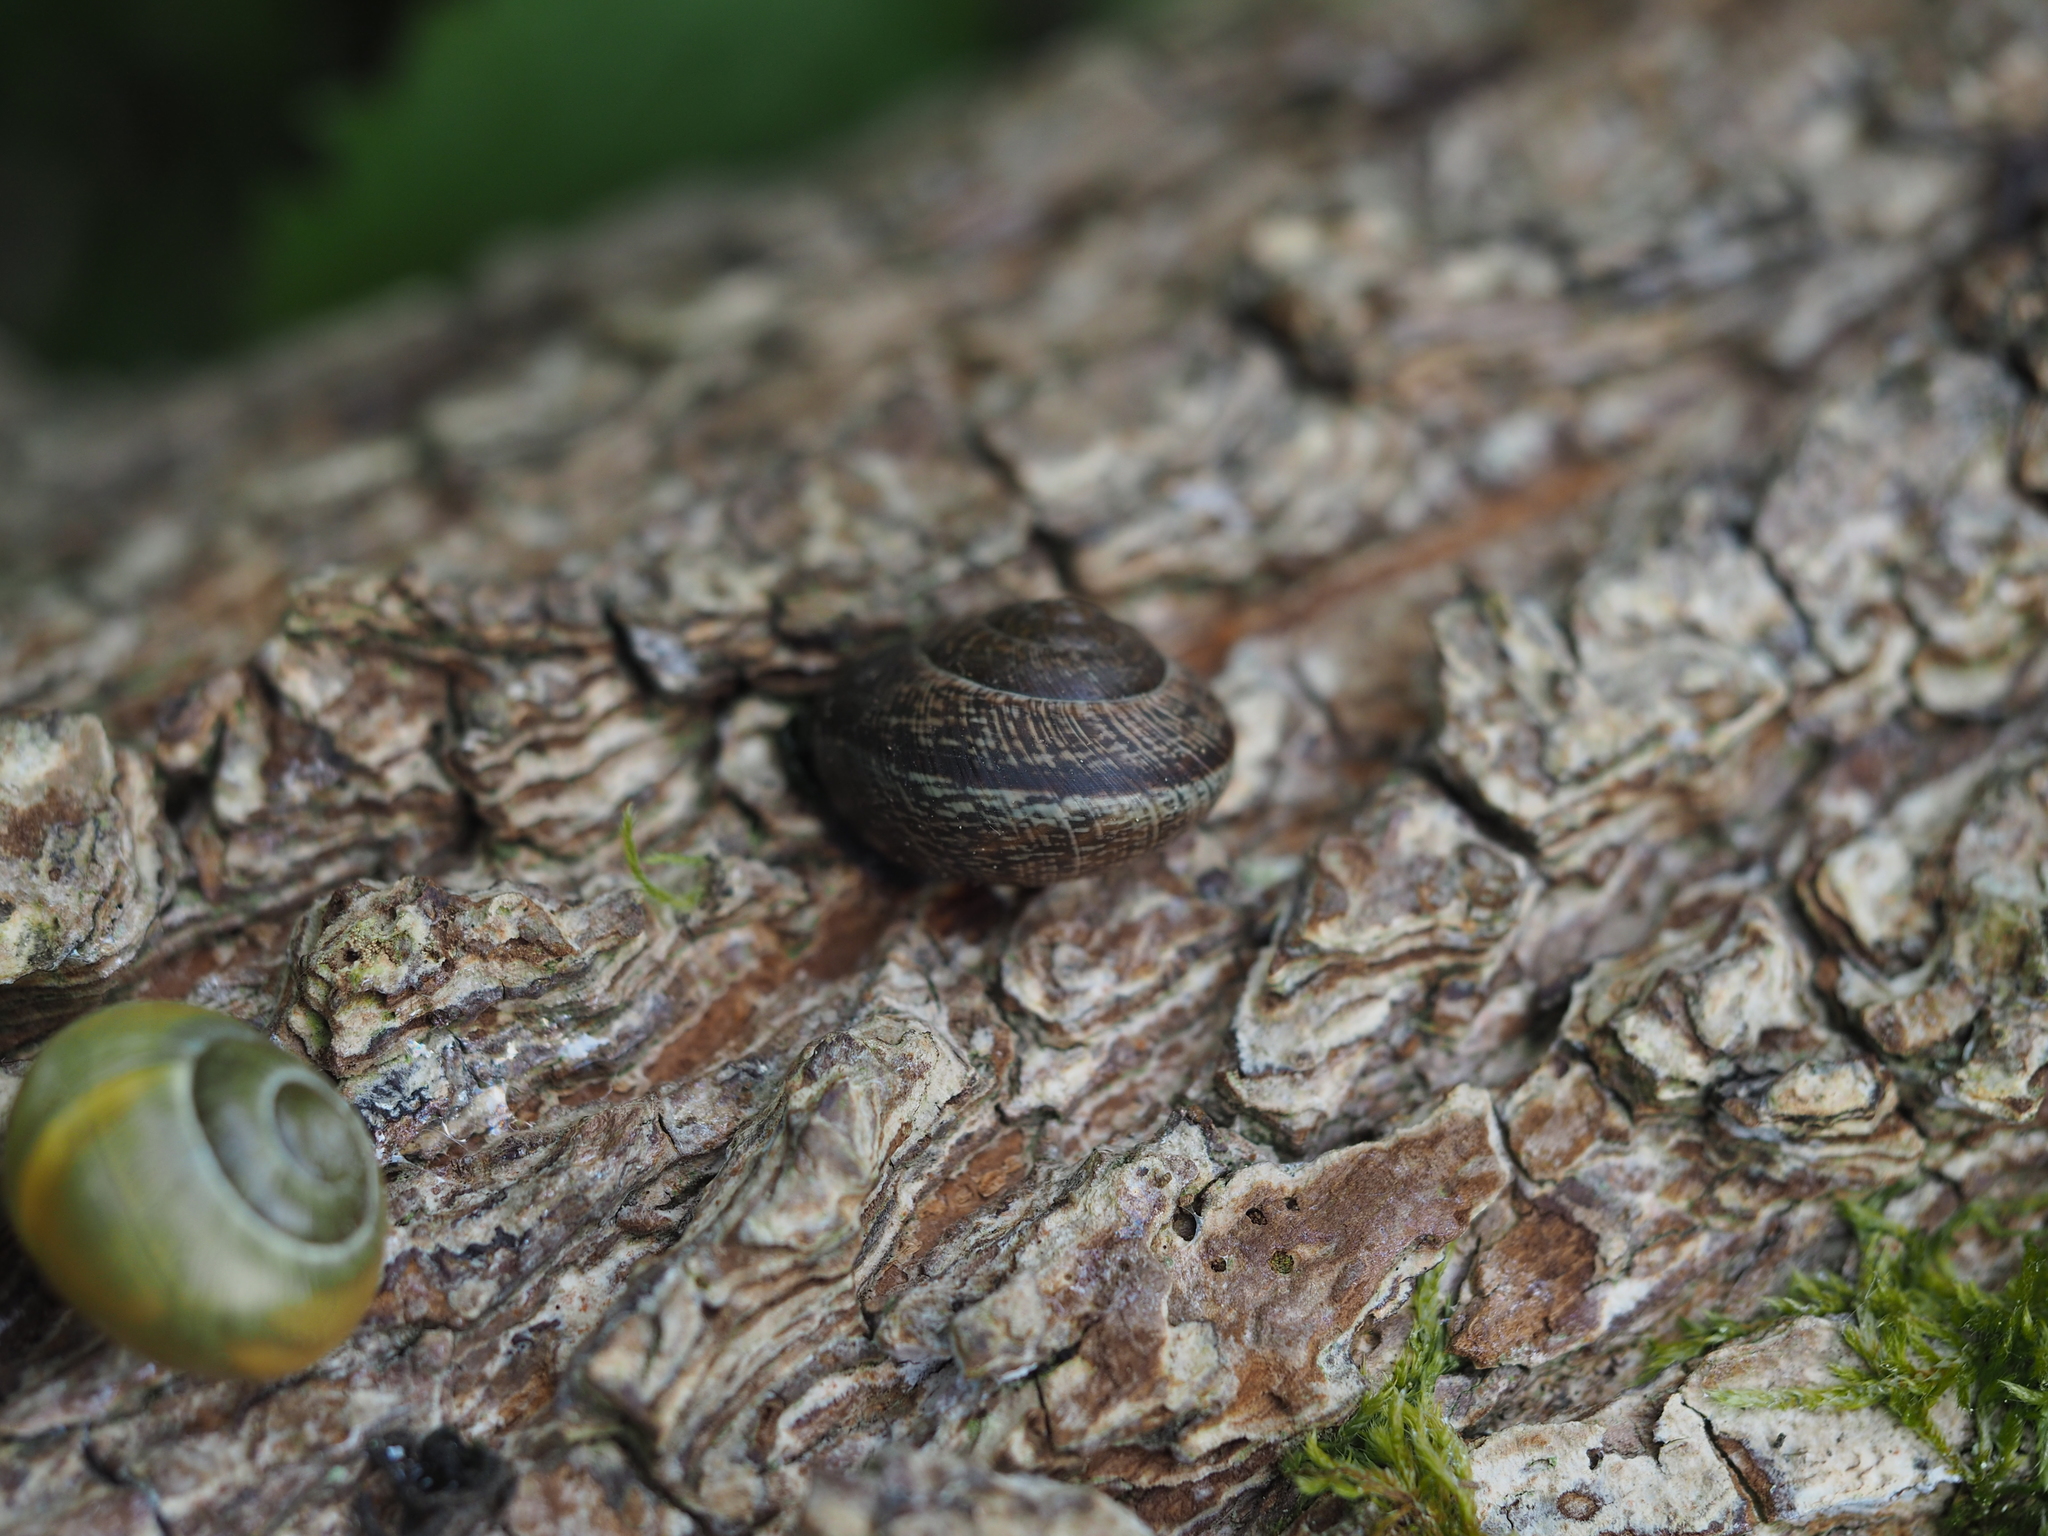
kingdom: Animalia
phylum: Mollusca
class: Gastropoda
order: Stylommatophora
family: Helicidae
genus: Arianta
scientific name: Arianta arbustorum
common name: Copse snail
